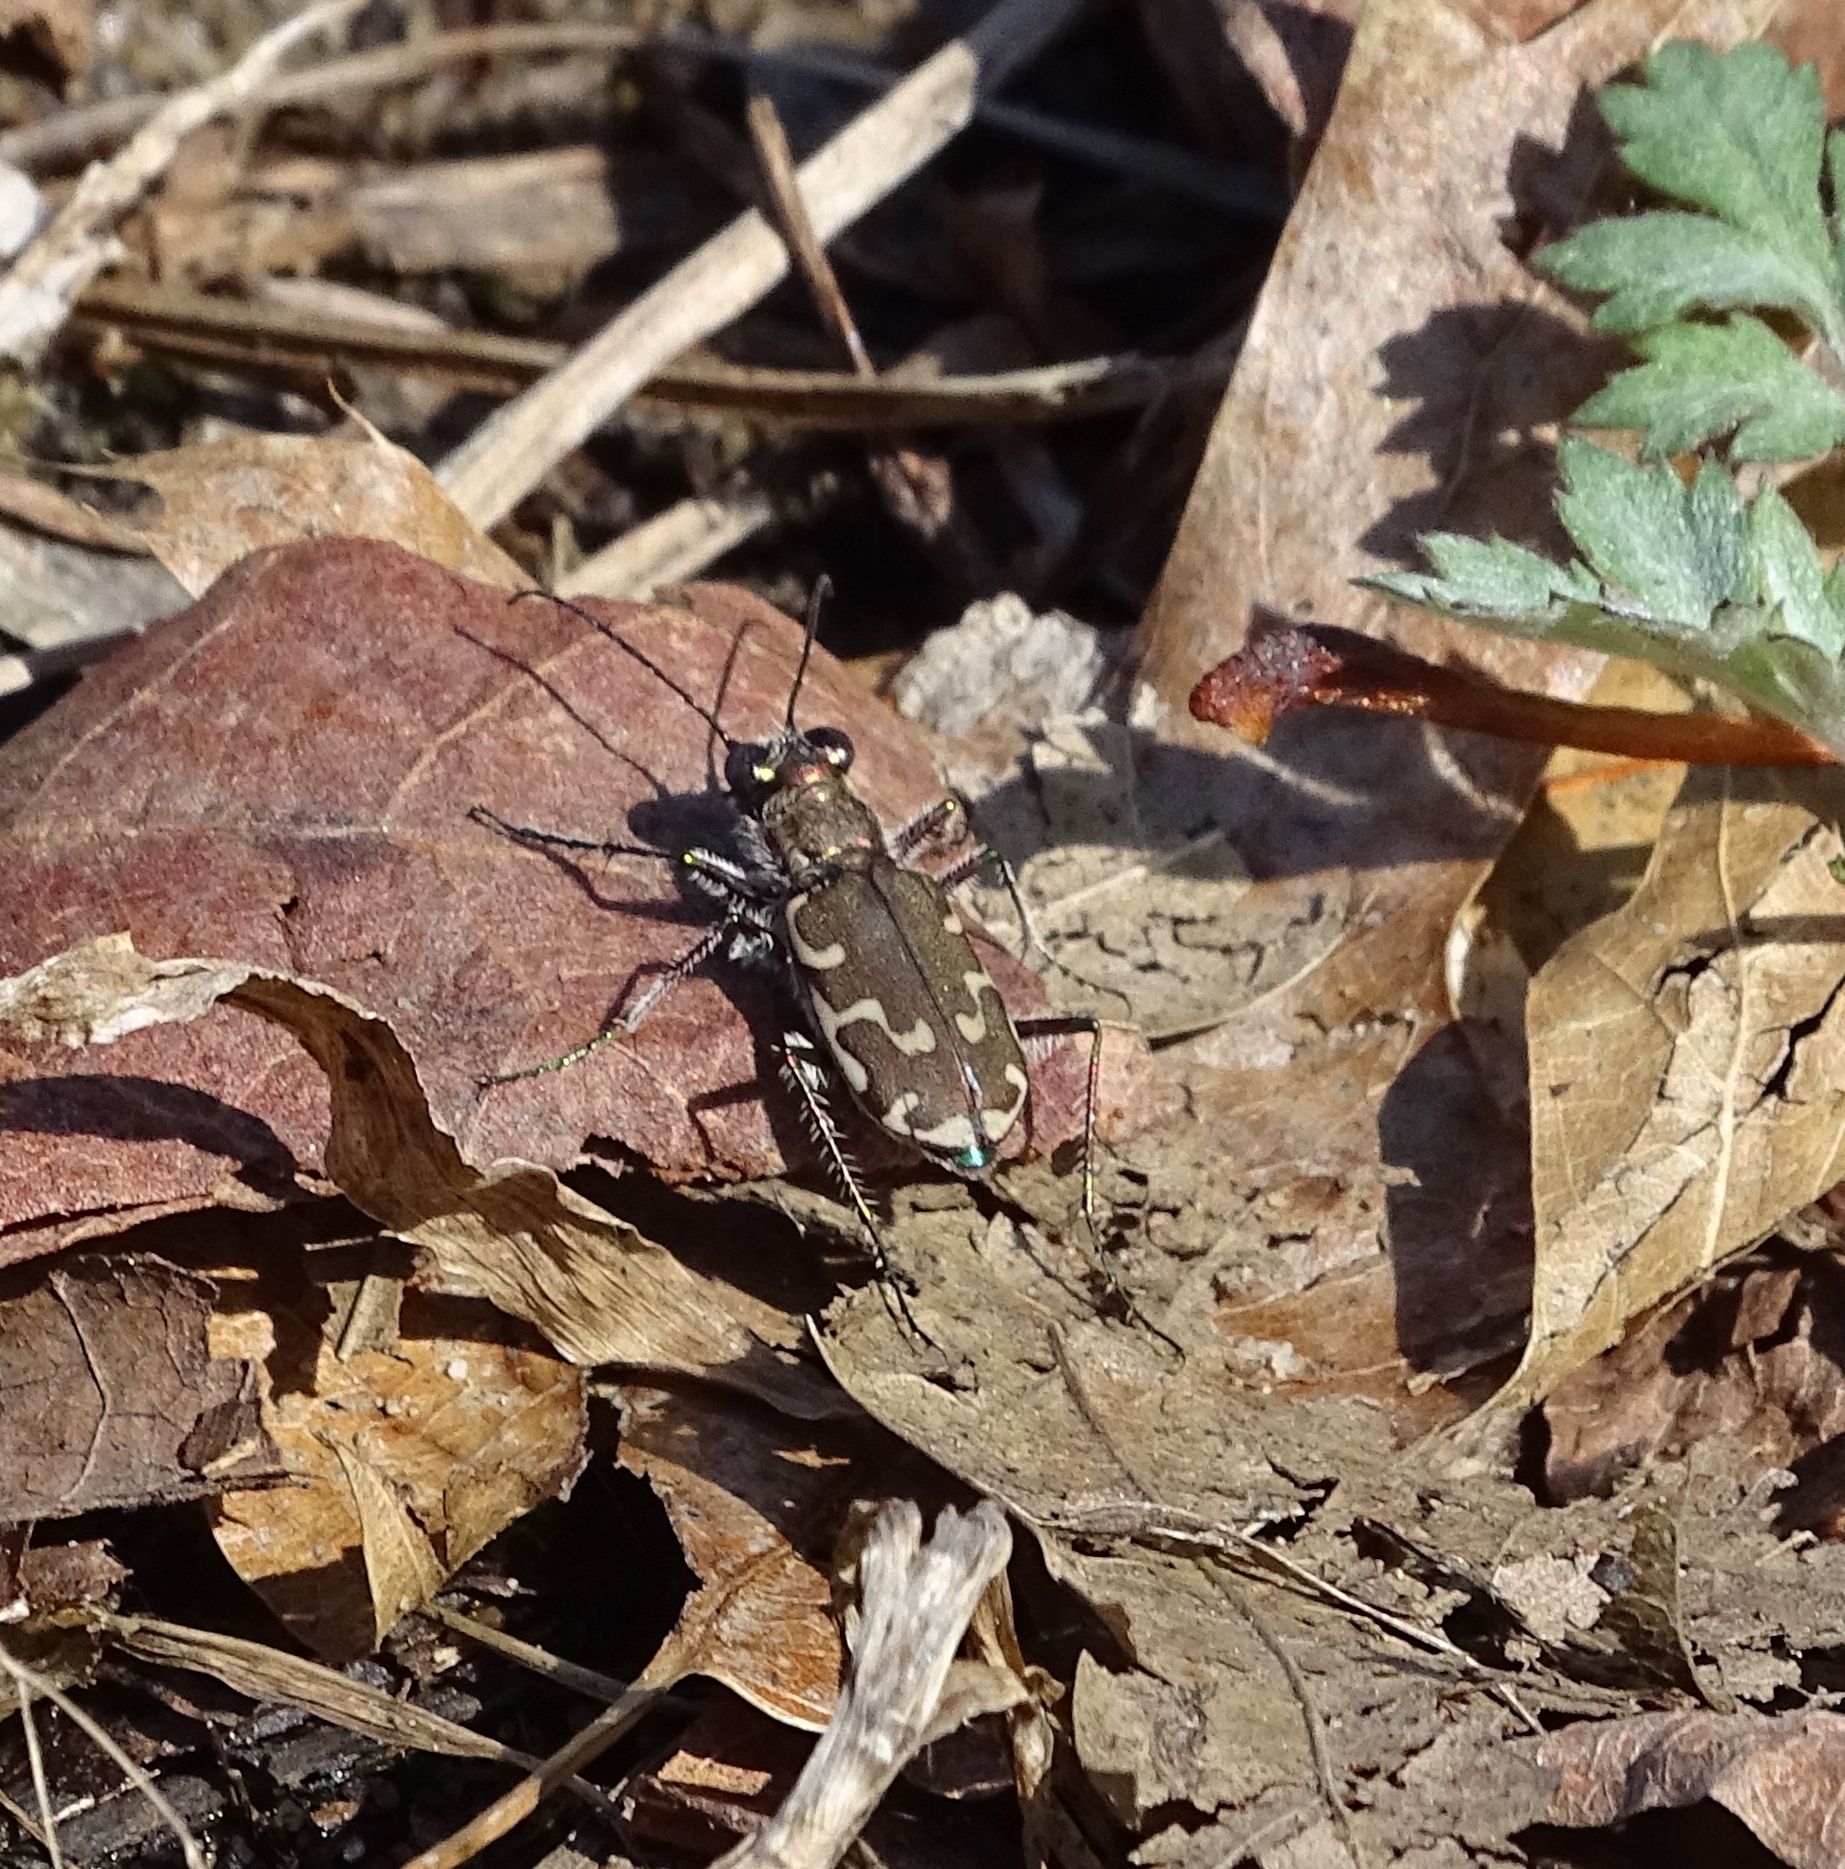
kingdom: Animalia
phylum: Arthropoda
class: Insecta
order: Coleoptera
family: Carabidae
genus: Cicindela
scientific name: Cicindela repanda
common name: Bronzed tiger beetle
